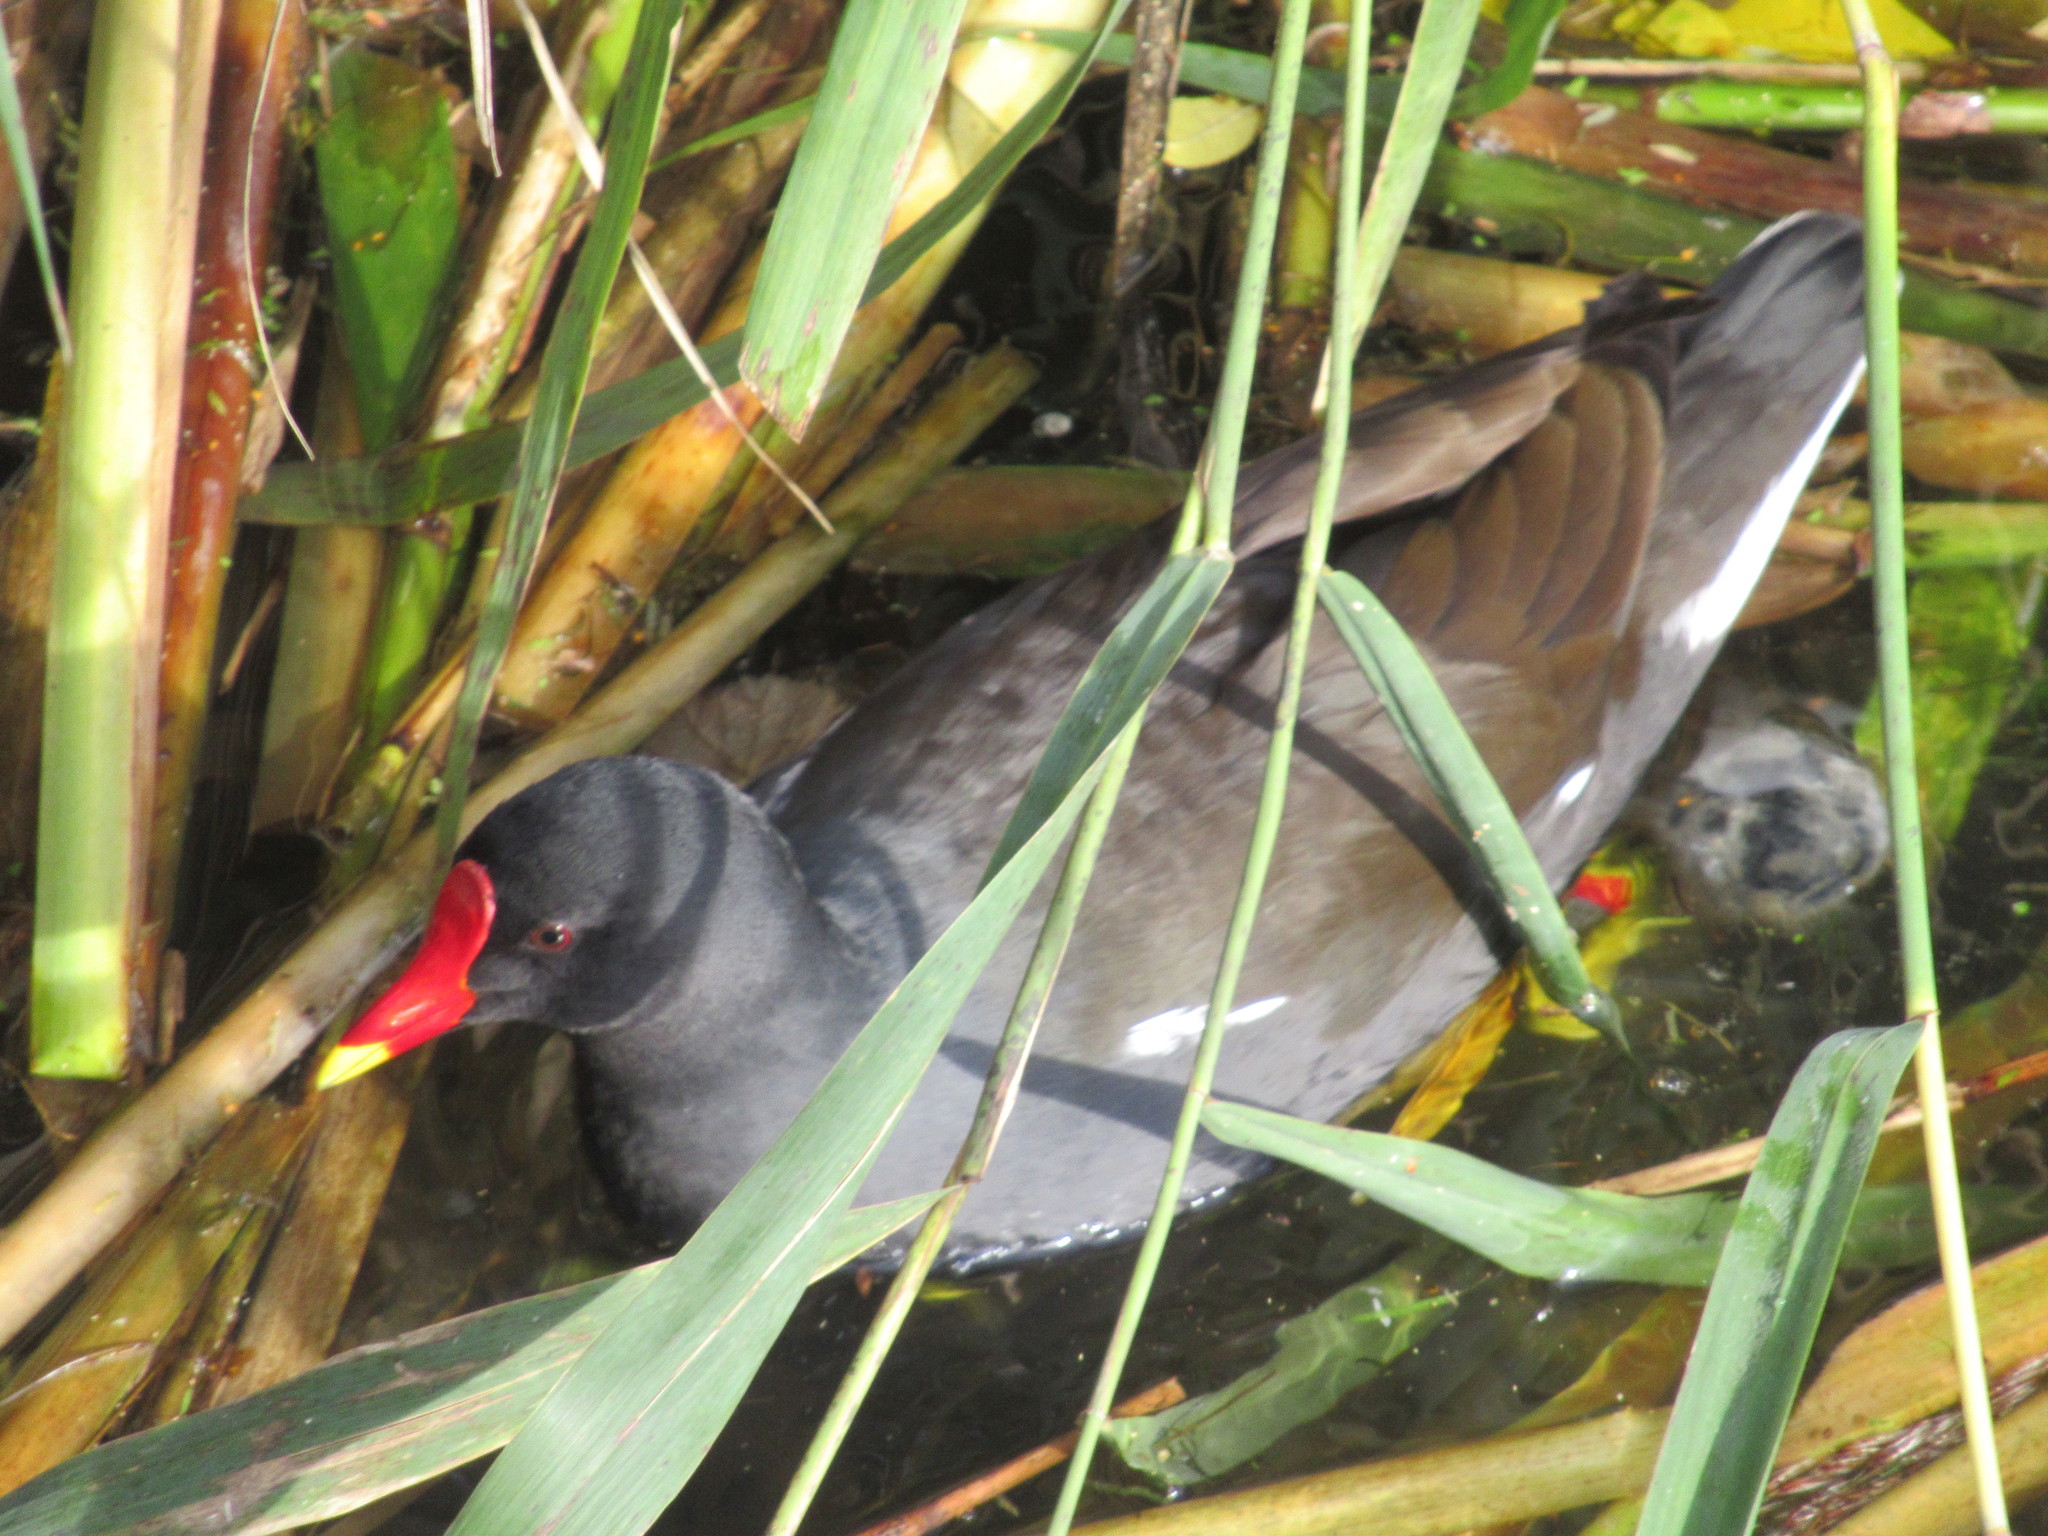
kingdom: Animalia
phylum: Chordata
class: Aves
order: Gruiformes
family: Rallidae
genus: Gallinula
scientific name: Gallinula chloropus
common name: Common moorhen
